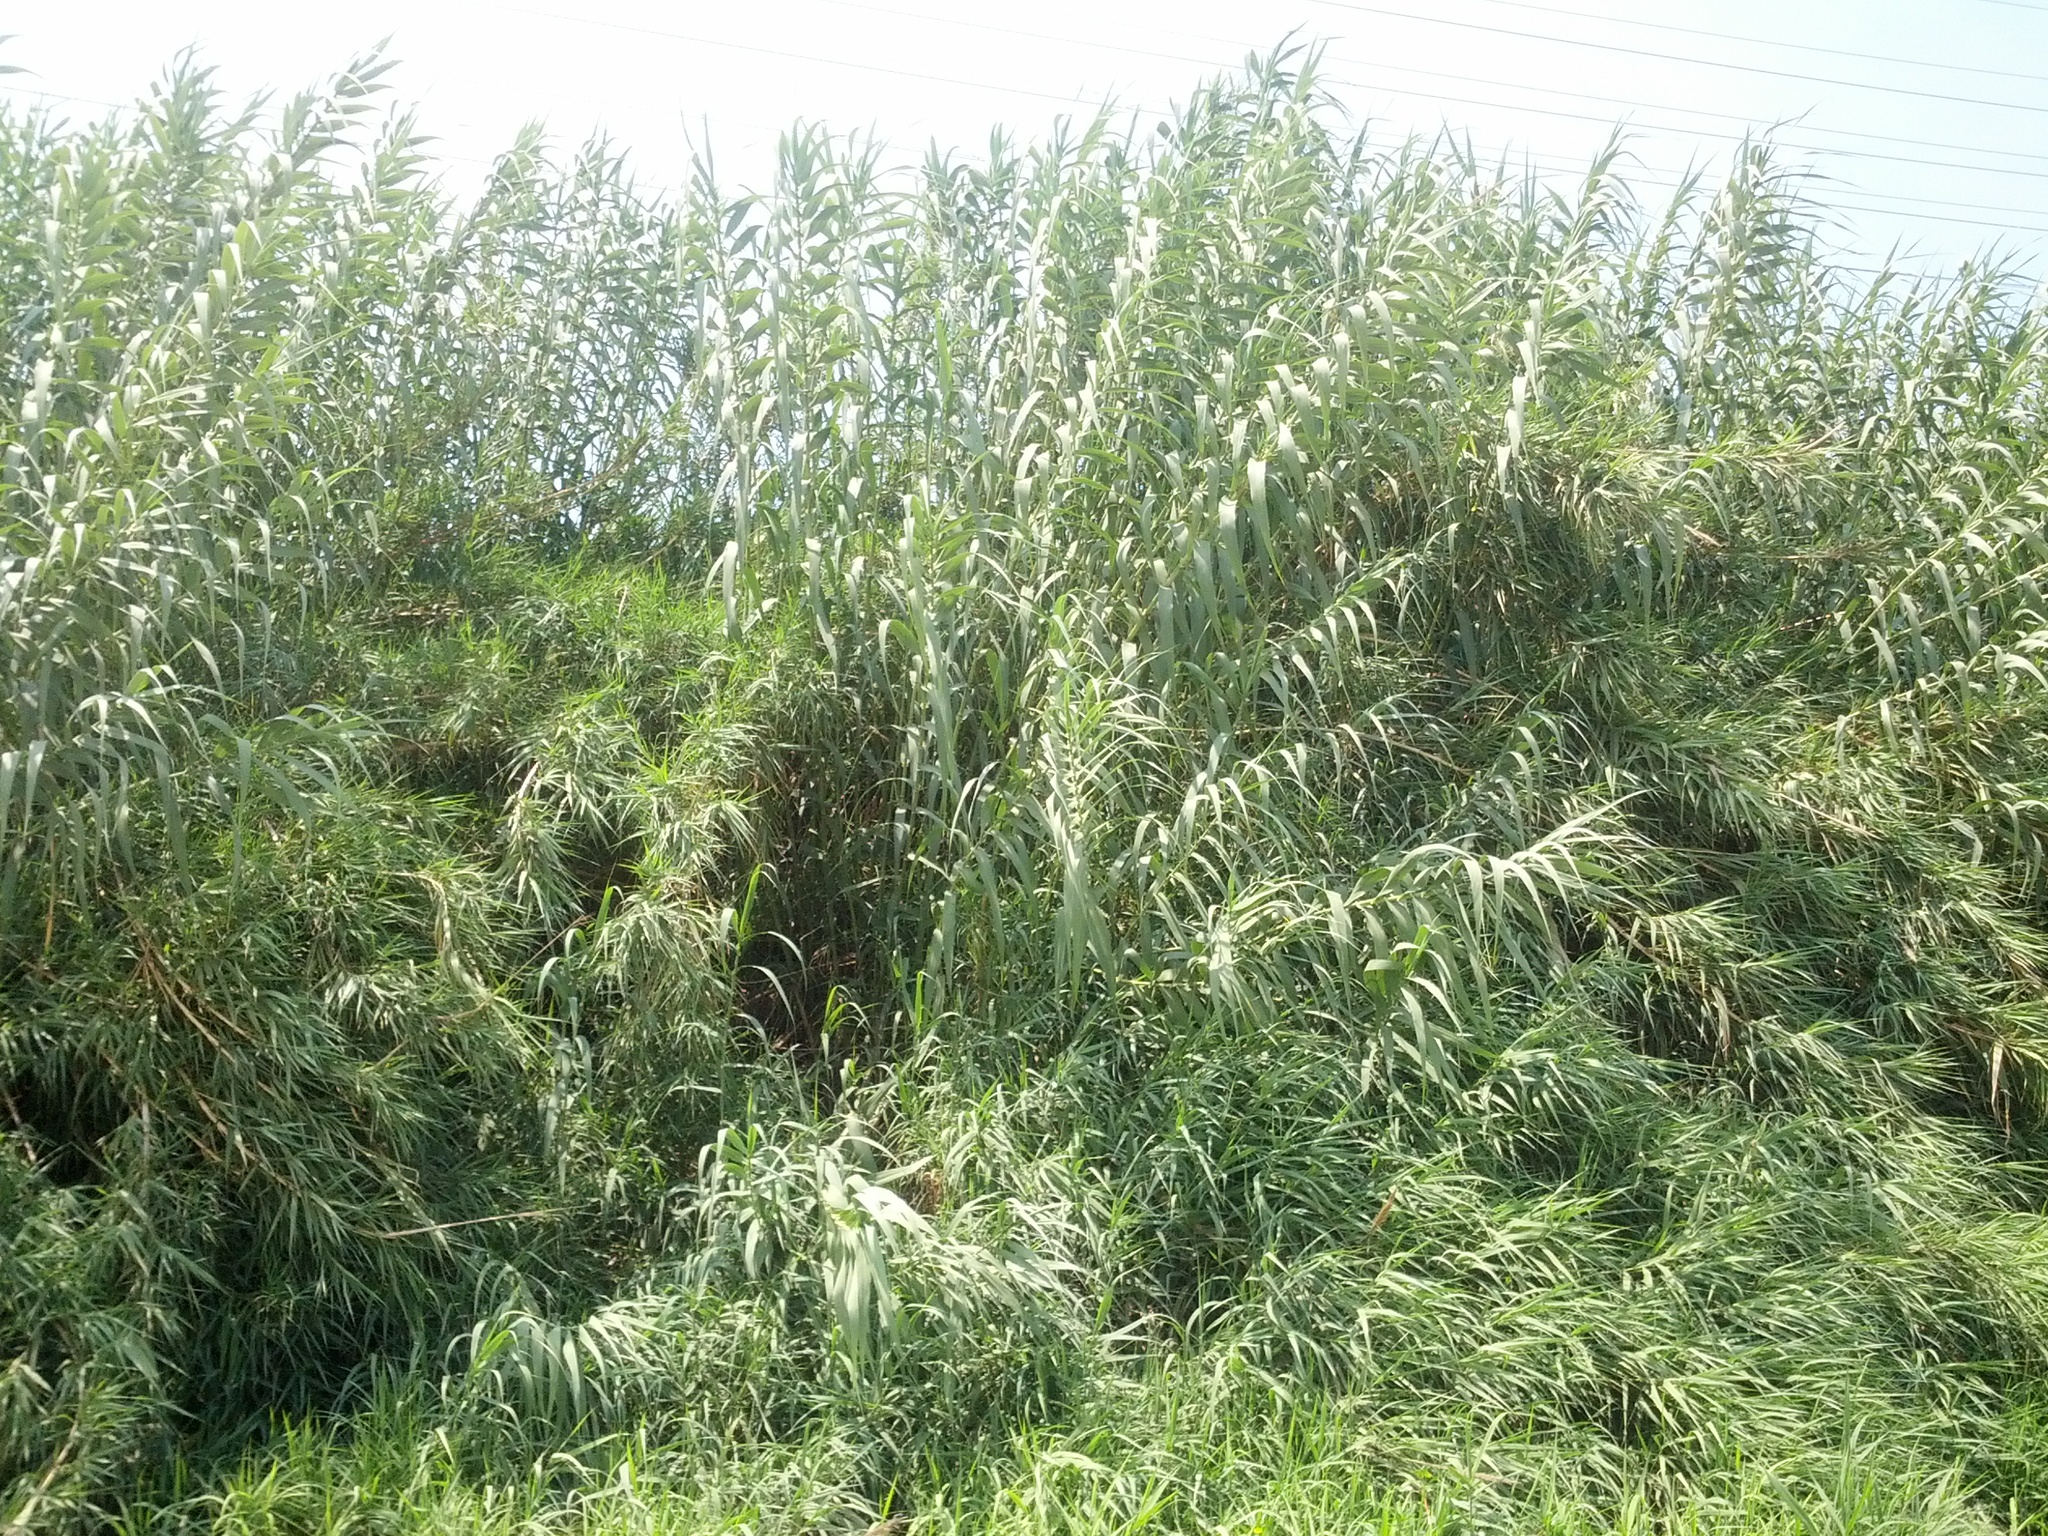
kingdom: Plantae
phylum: Tracheophyta
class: Liliopsida
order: Poales
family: Poaceae
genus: Arundo
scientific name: Arundo donax
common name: Giant reed
